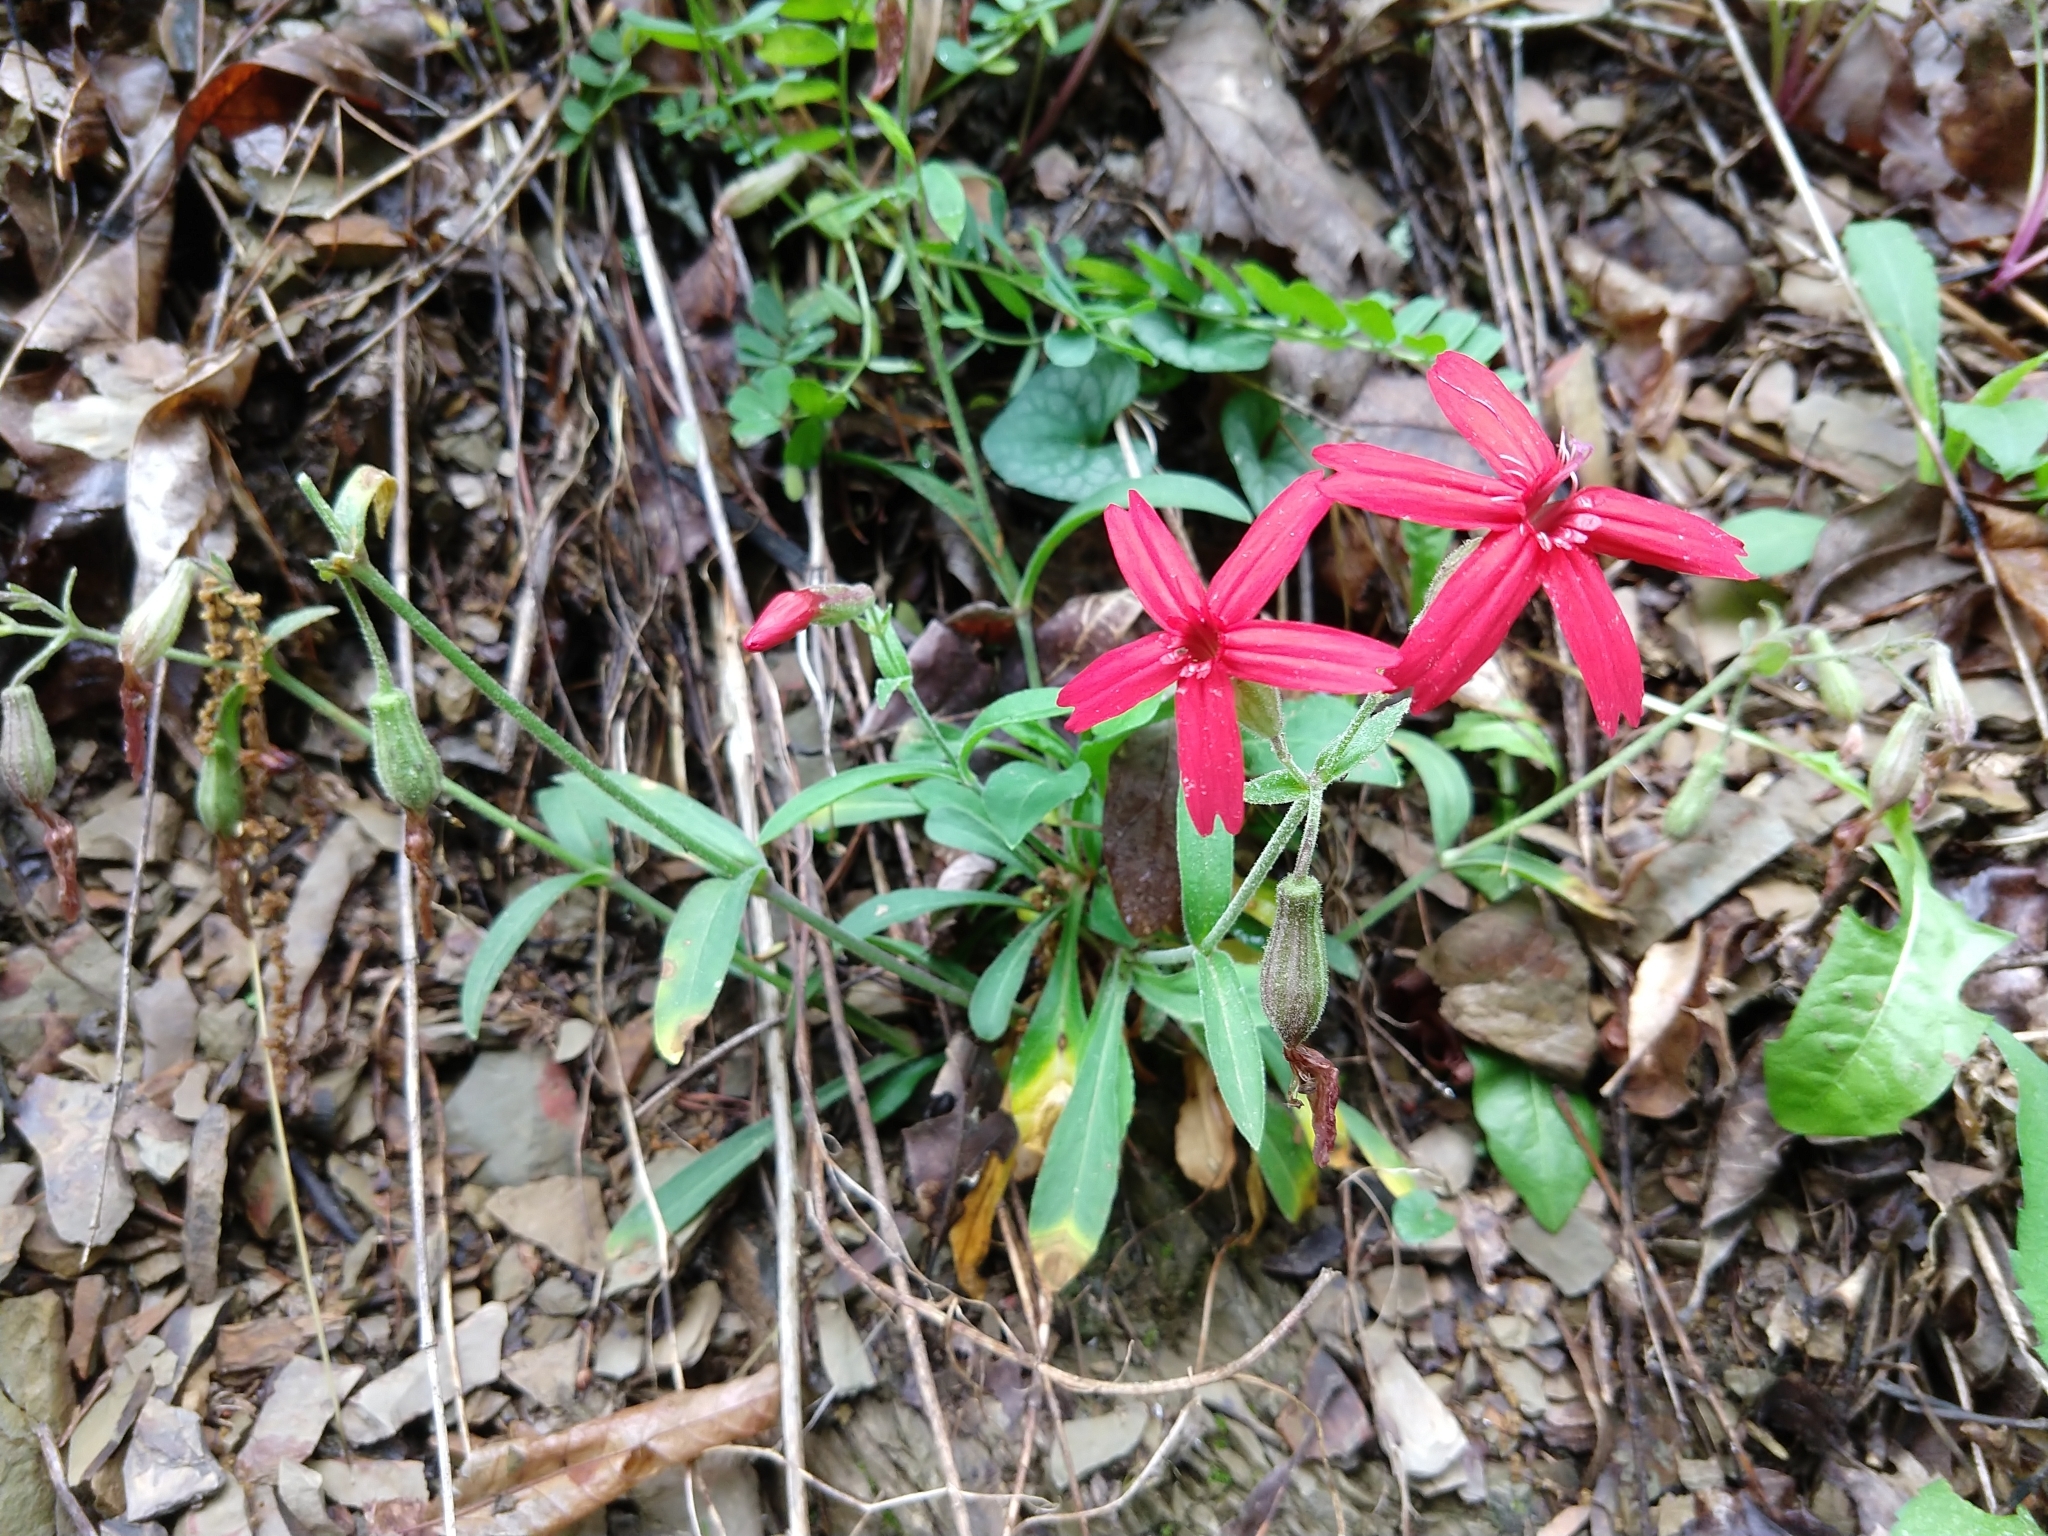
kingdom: Plantae
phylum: Tracheophyta
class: Magnoliopsida
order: Caryophyllales
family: Caryophyllaceae
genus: Silene
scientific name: Silene virginica
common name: Fire-pink
